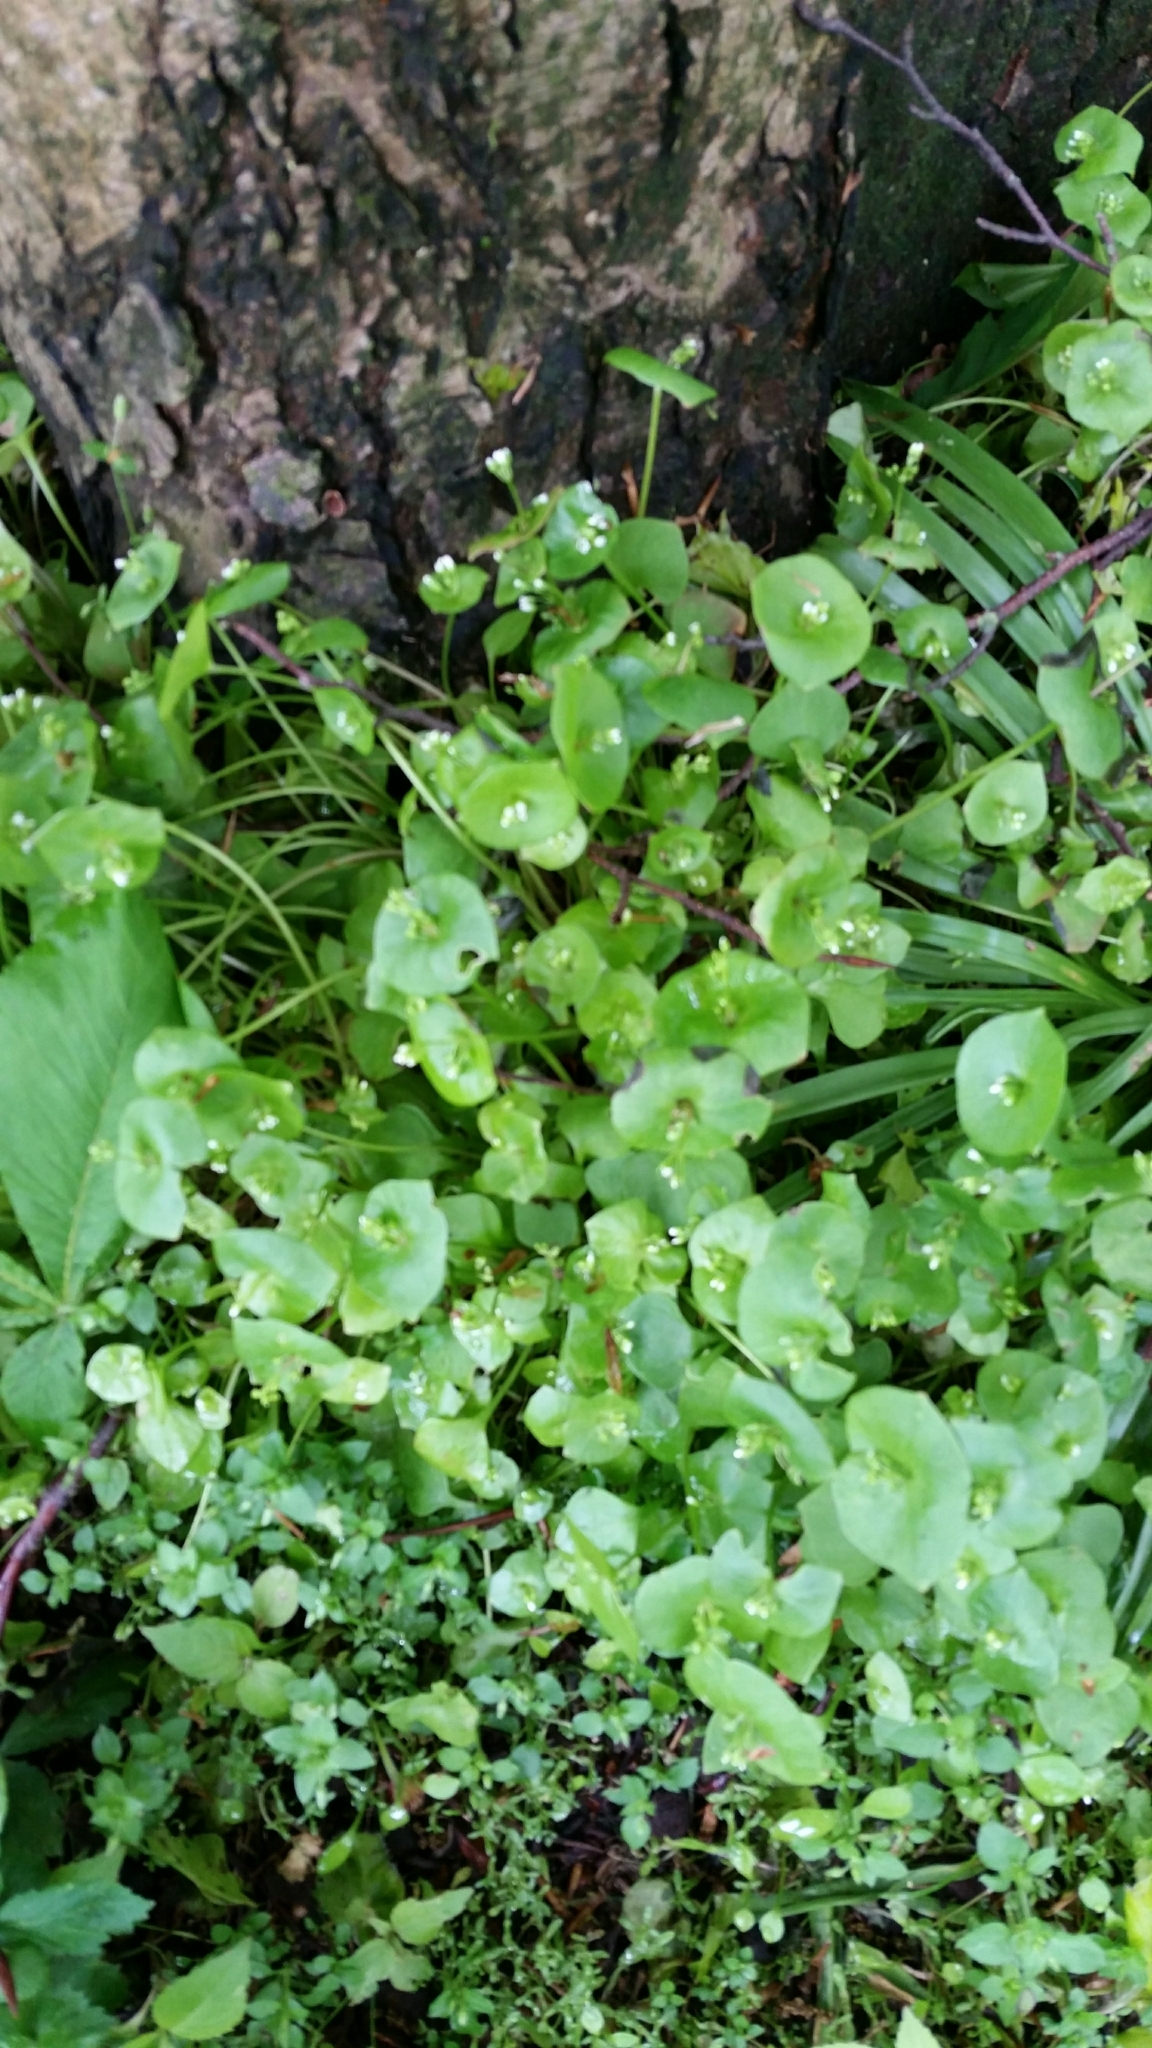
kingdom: Plantae
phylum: Tracheophyta
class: Magnoliopsida
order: Caryophyllales
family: Montiaceae
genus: Claytonia
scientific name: Claytonia perfoliata
